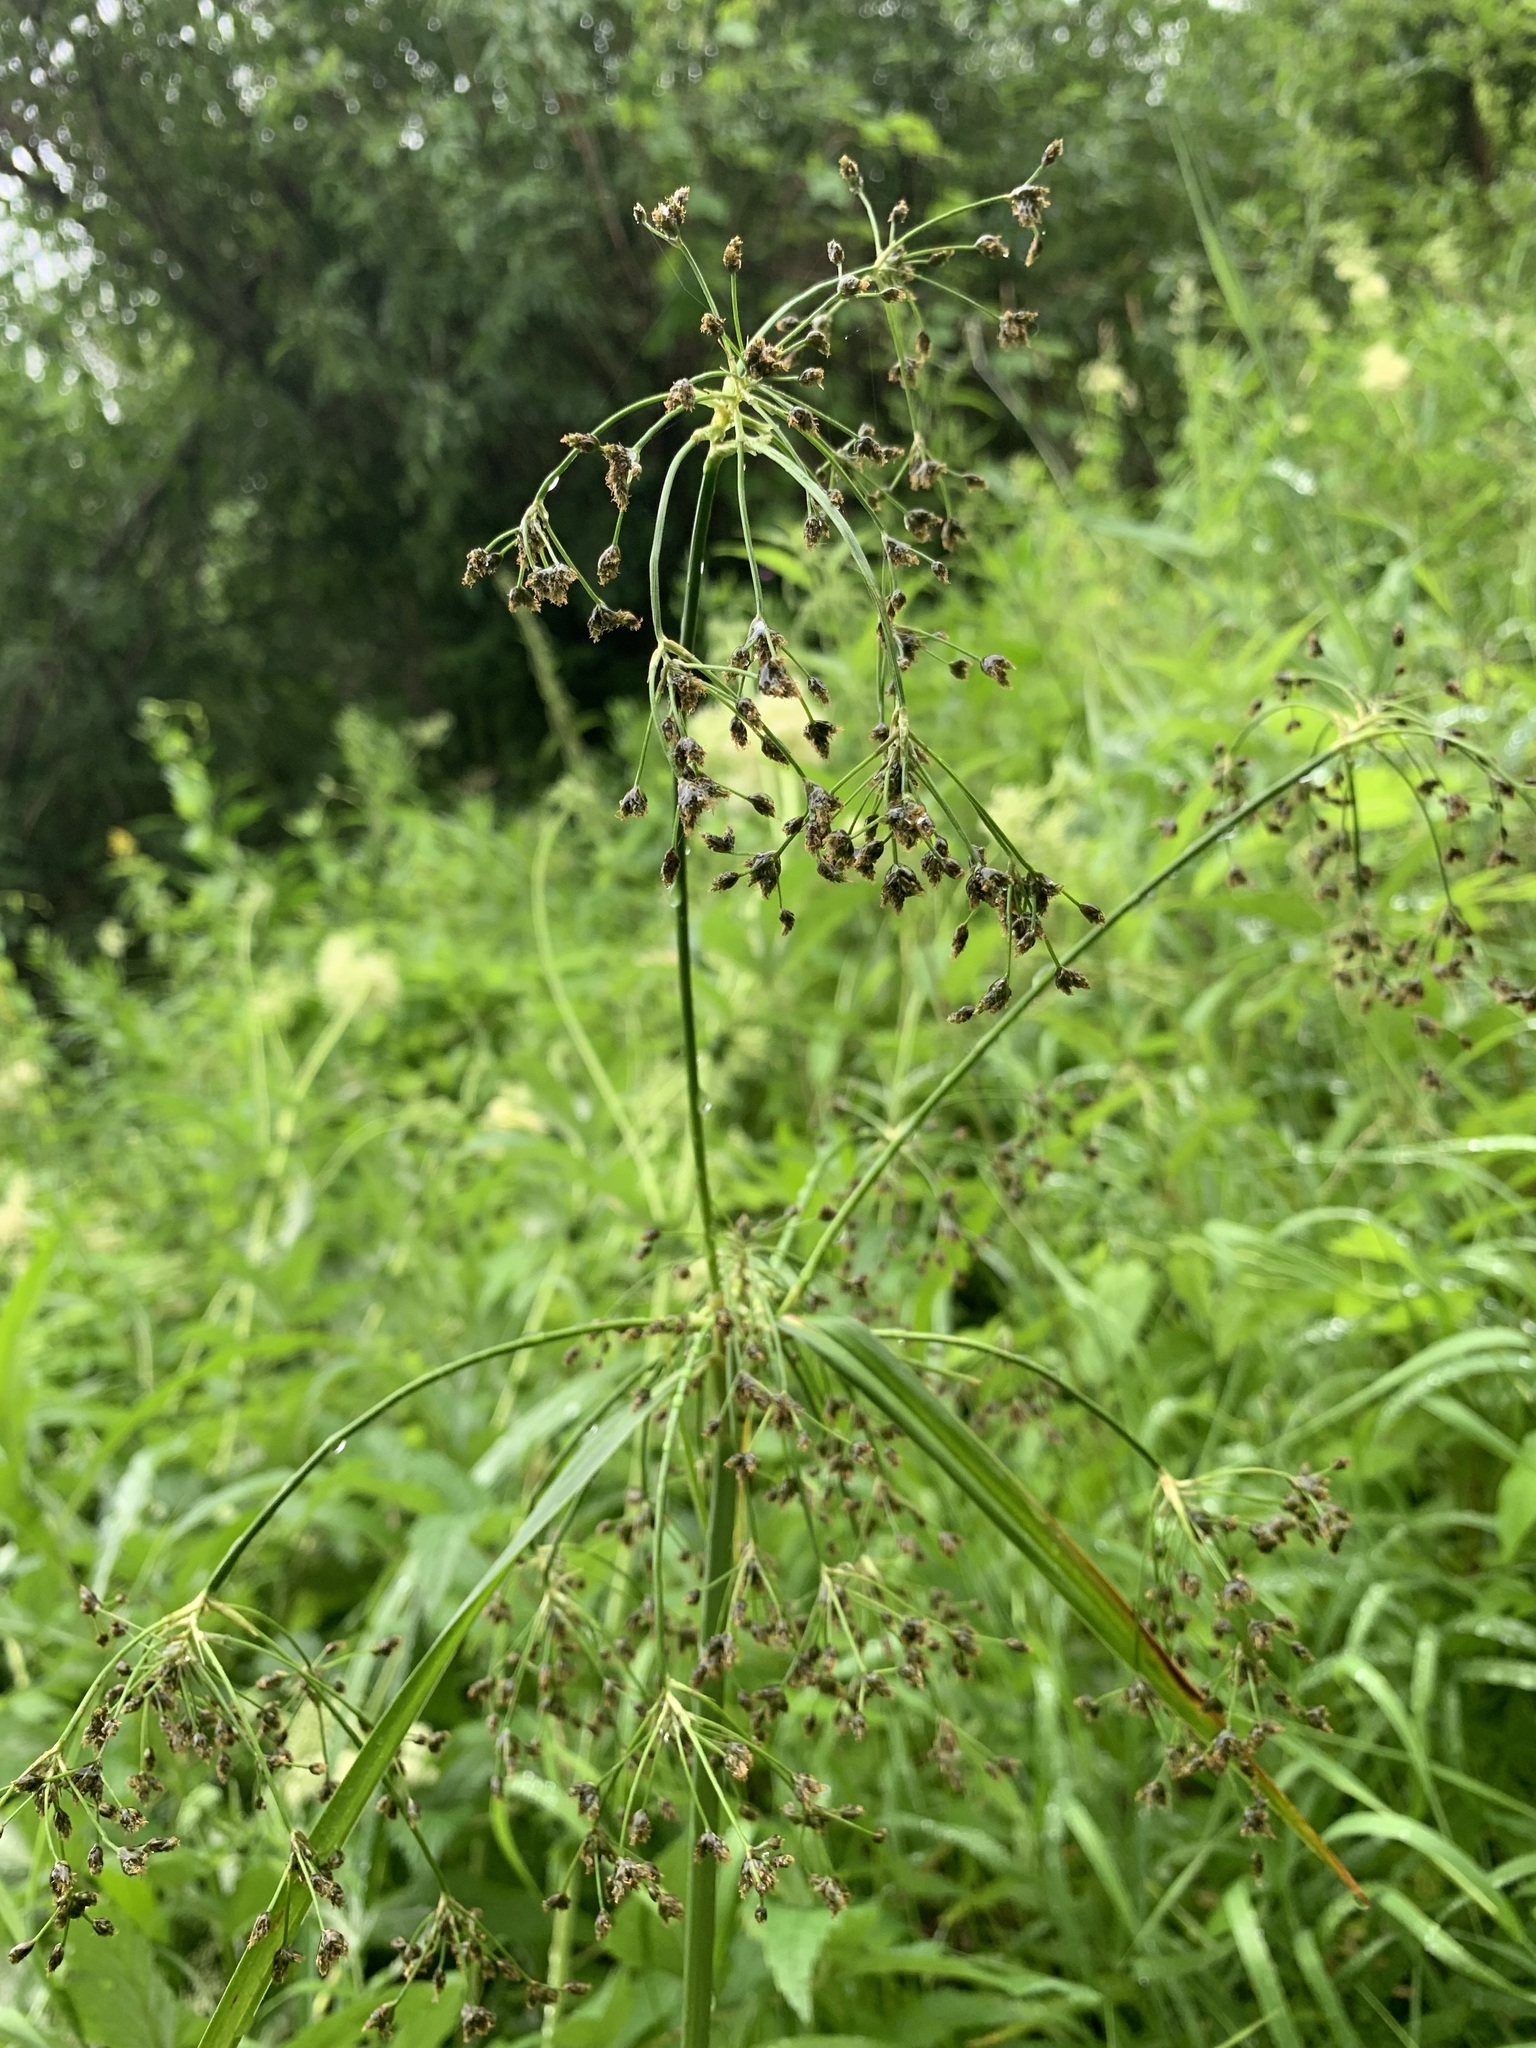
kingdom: Plantae
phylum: Tracheophyta
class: Liliopsida
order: Poales
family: Cyperaceae
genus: Scirpus
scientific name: Scirpus sylvaticus
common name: Wood club-rush
